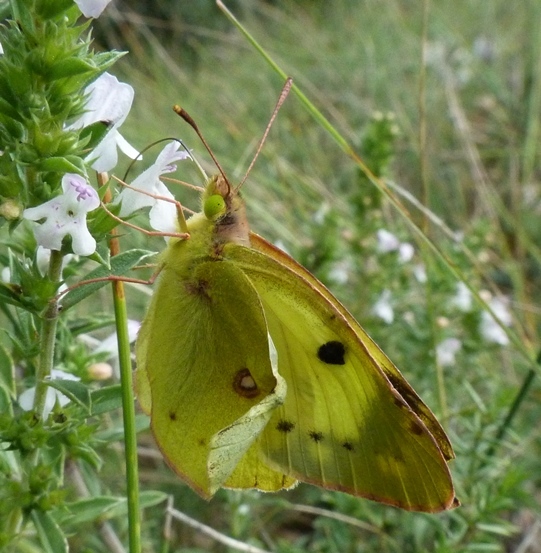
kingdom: Animalia
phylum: Arthropoda
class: Insecta
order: Lepidoptera
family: Pieridae
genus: Colias
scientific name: Colias alfacariensis
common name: Berger's clouded yellow
